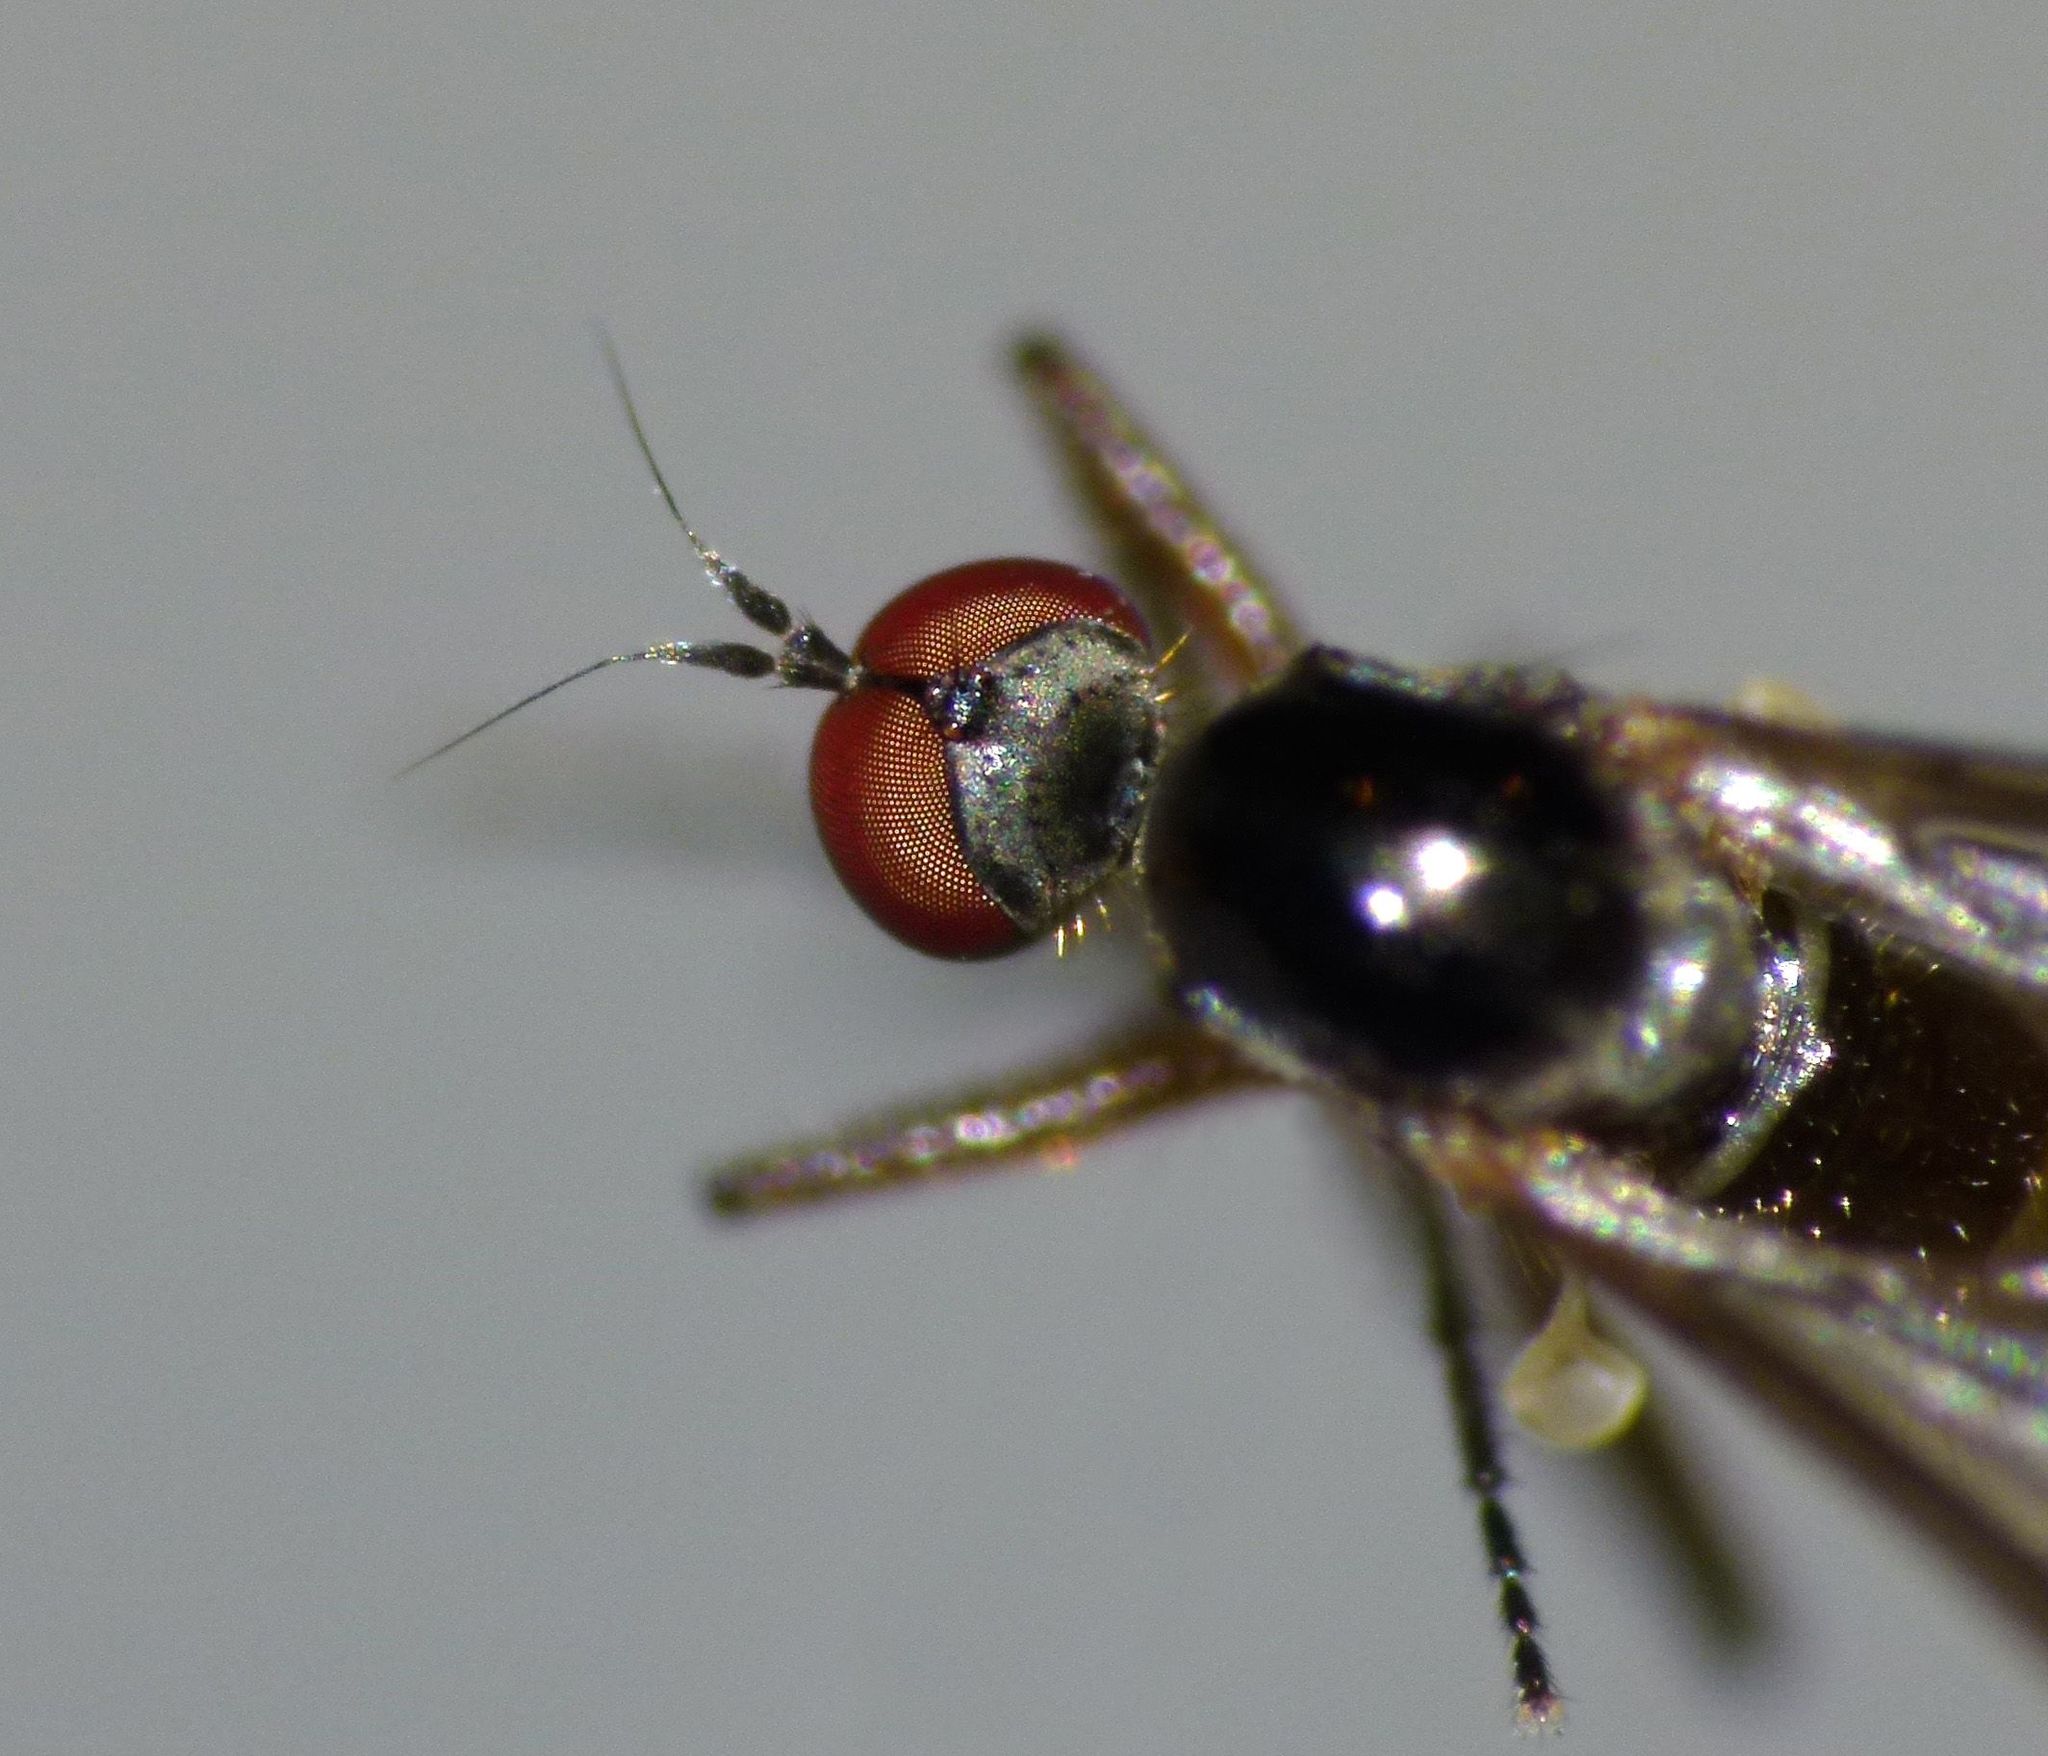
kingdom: Animalia
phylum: Arthropoda
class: Insecta
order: Diptera
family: Hybotidae
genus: Oropezella
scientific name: Oropezella bifurcata
